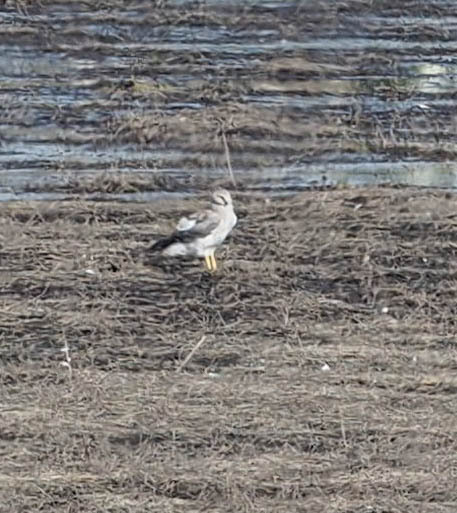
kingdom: Animalia
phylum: Chordata
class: Aves
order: Accipitriformes
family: Accipitridae
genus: Circus
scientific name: Circus cyaneus
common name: Hen harrier
